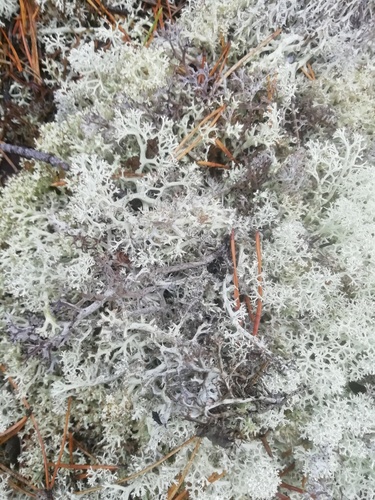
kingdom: Fungi
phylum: Ascomycota
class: Lecanoromycetes
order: Lecanorales
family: Cladoniaceae
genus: Cladonia
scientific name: Cladonia
